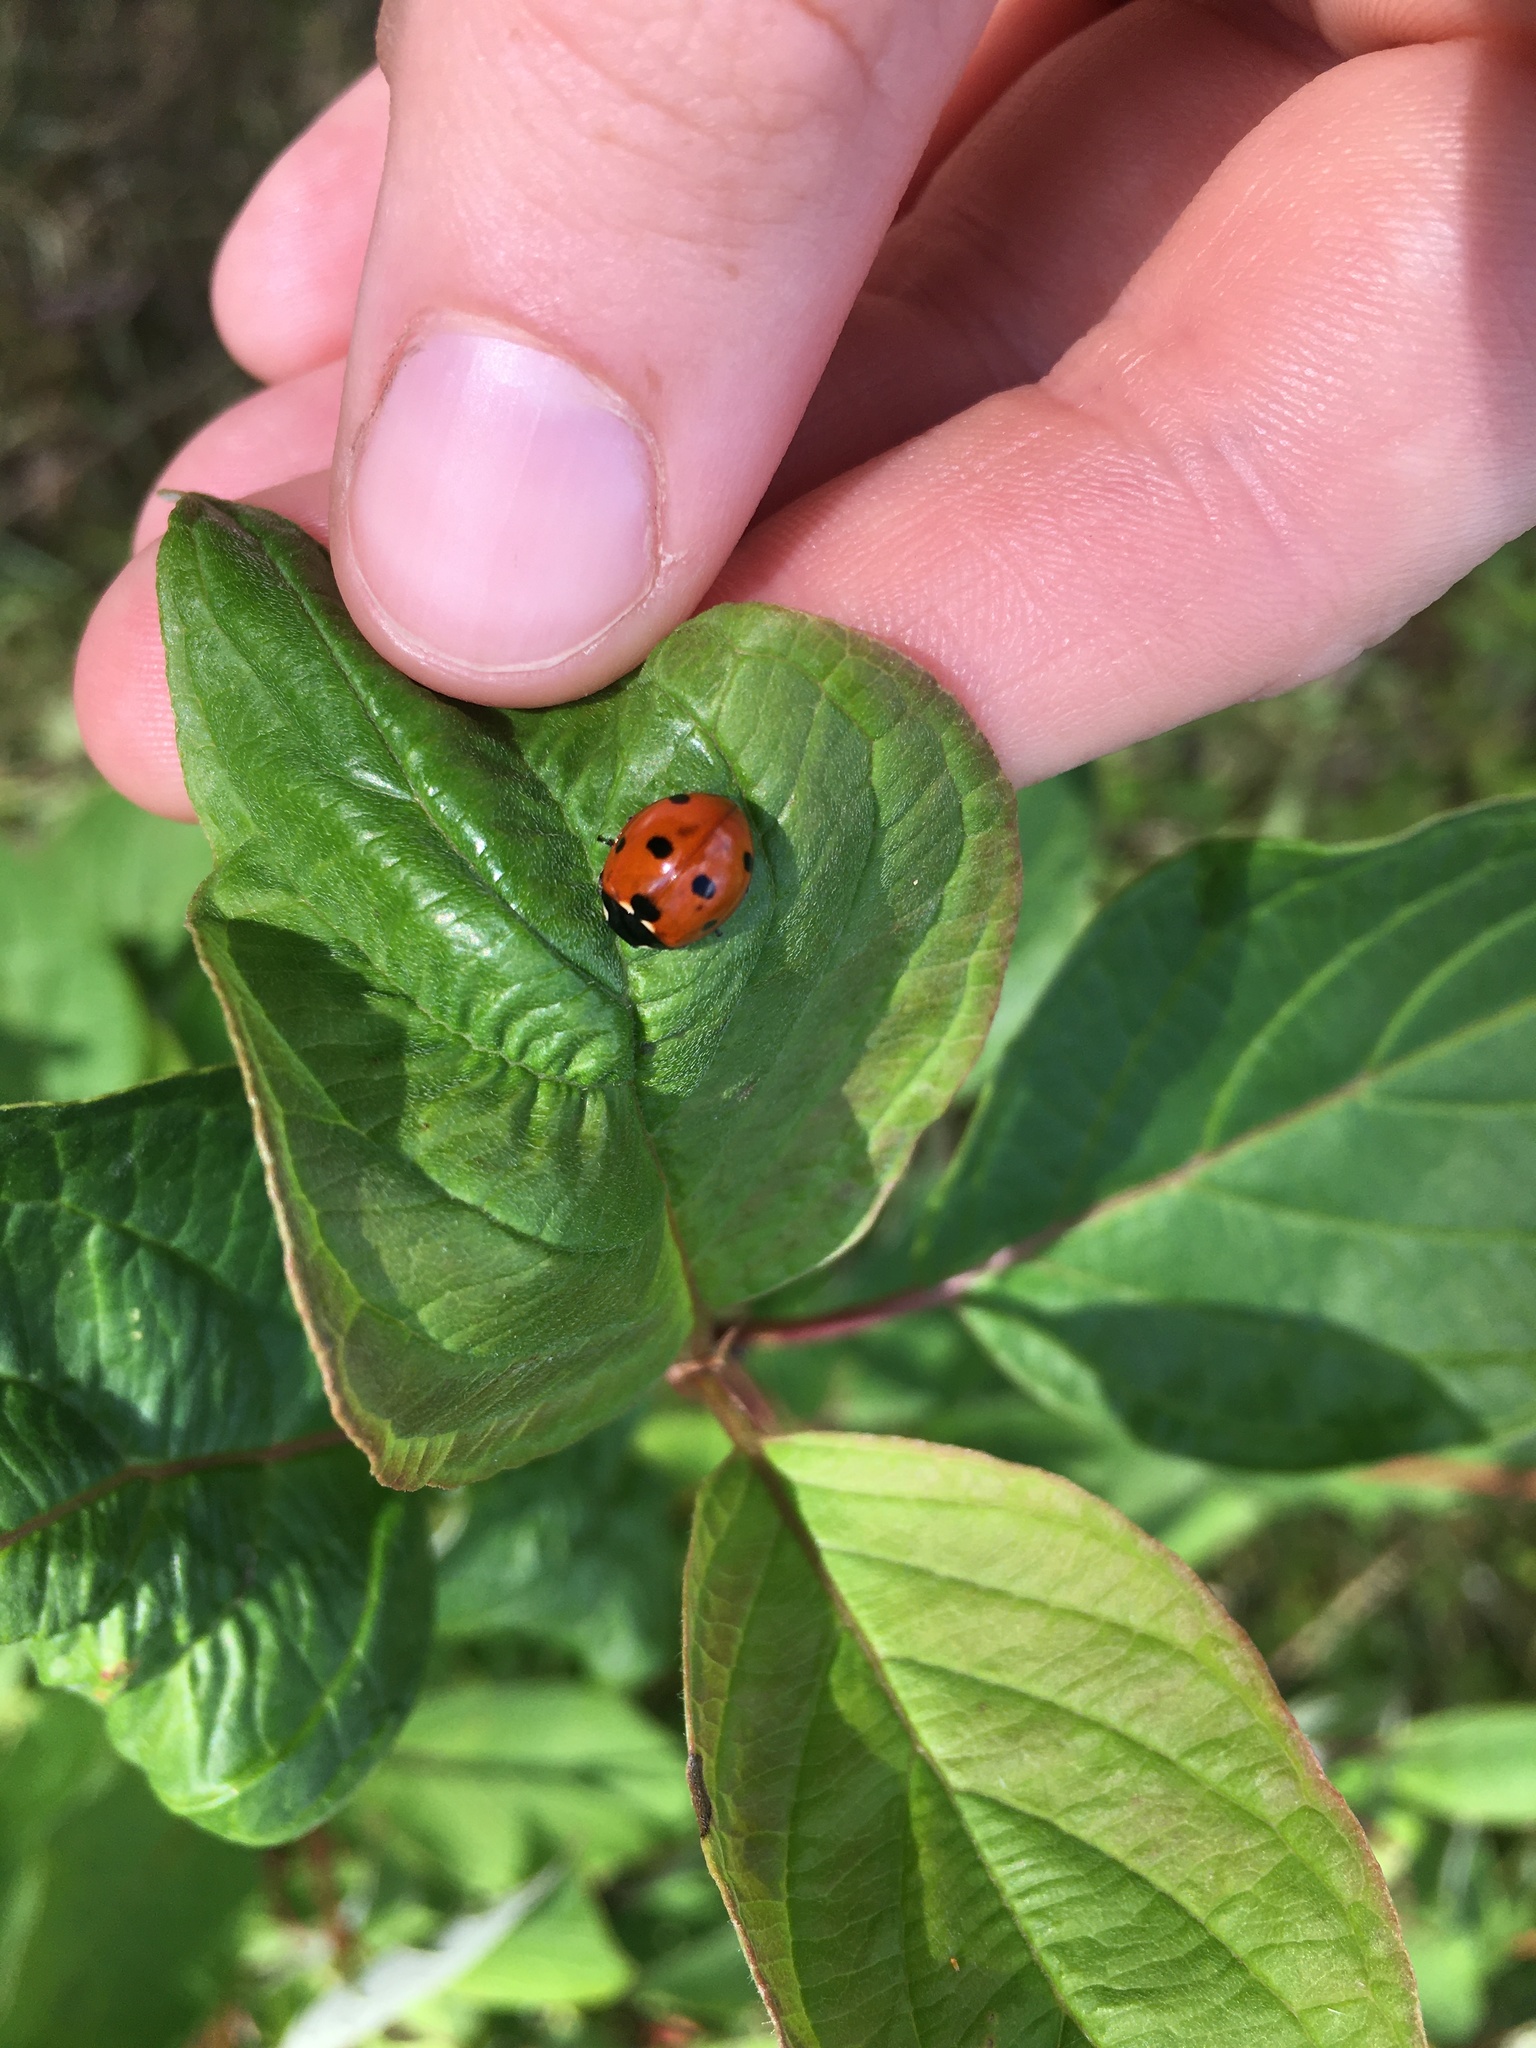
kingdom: Animalia
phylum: Arthropoda
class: Insecta
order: Coleoptera
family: Coccinellidae
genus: Coccinella
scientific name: Coccinella septempunctata
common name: Sevenspotted lady beetle
